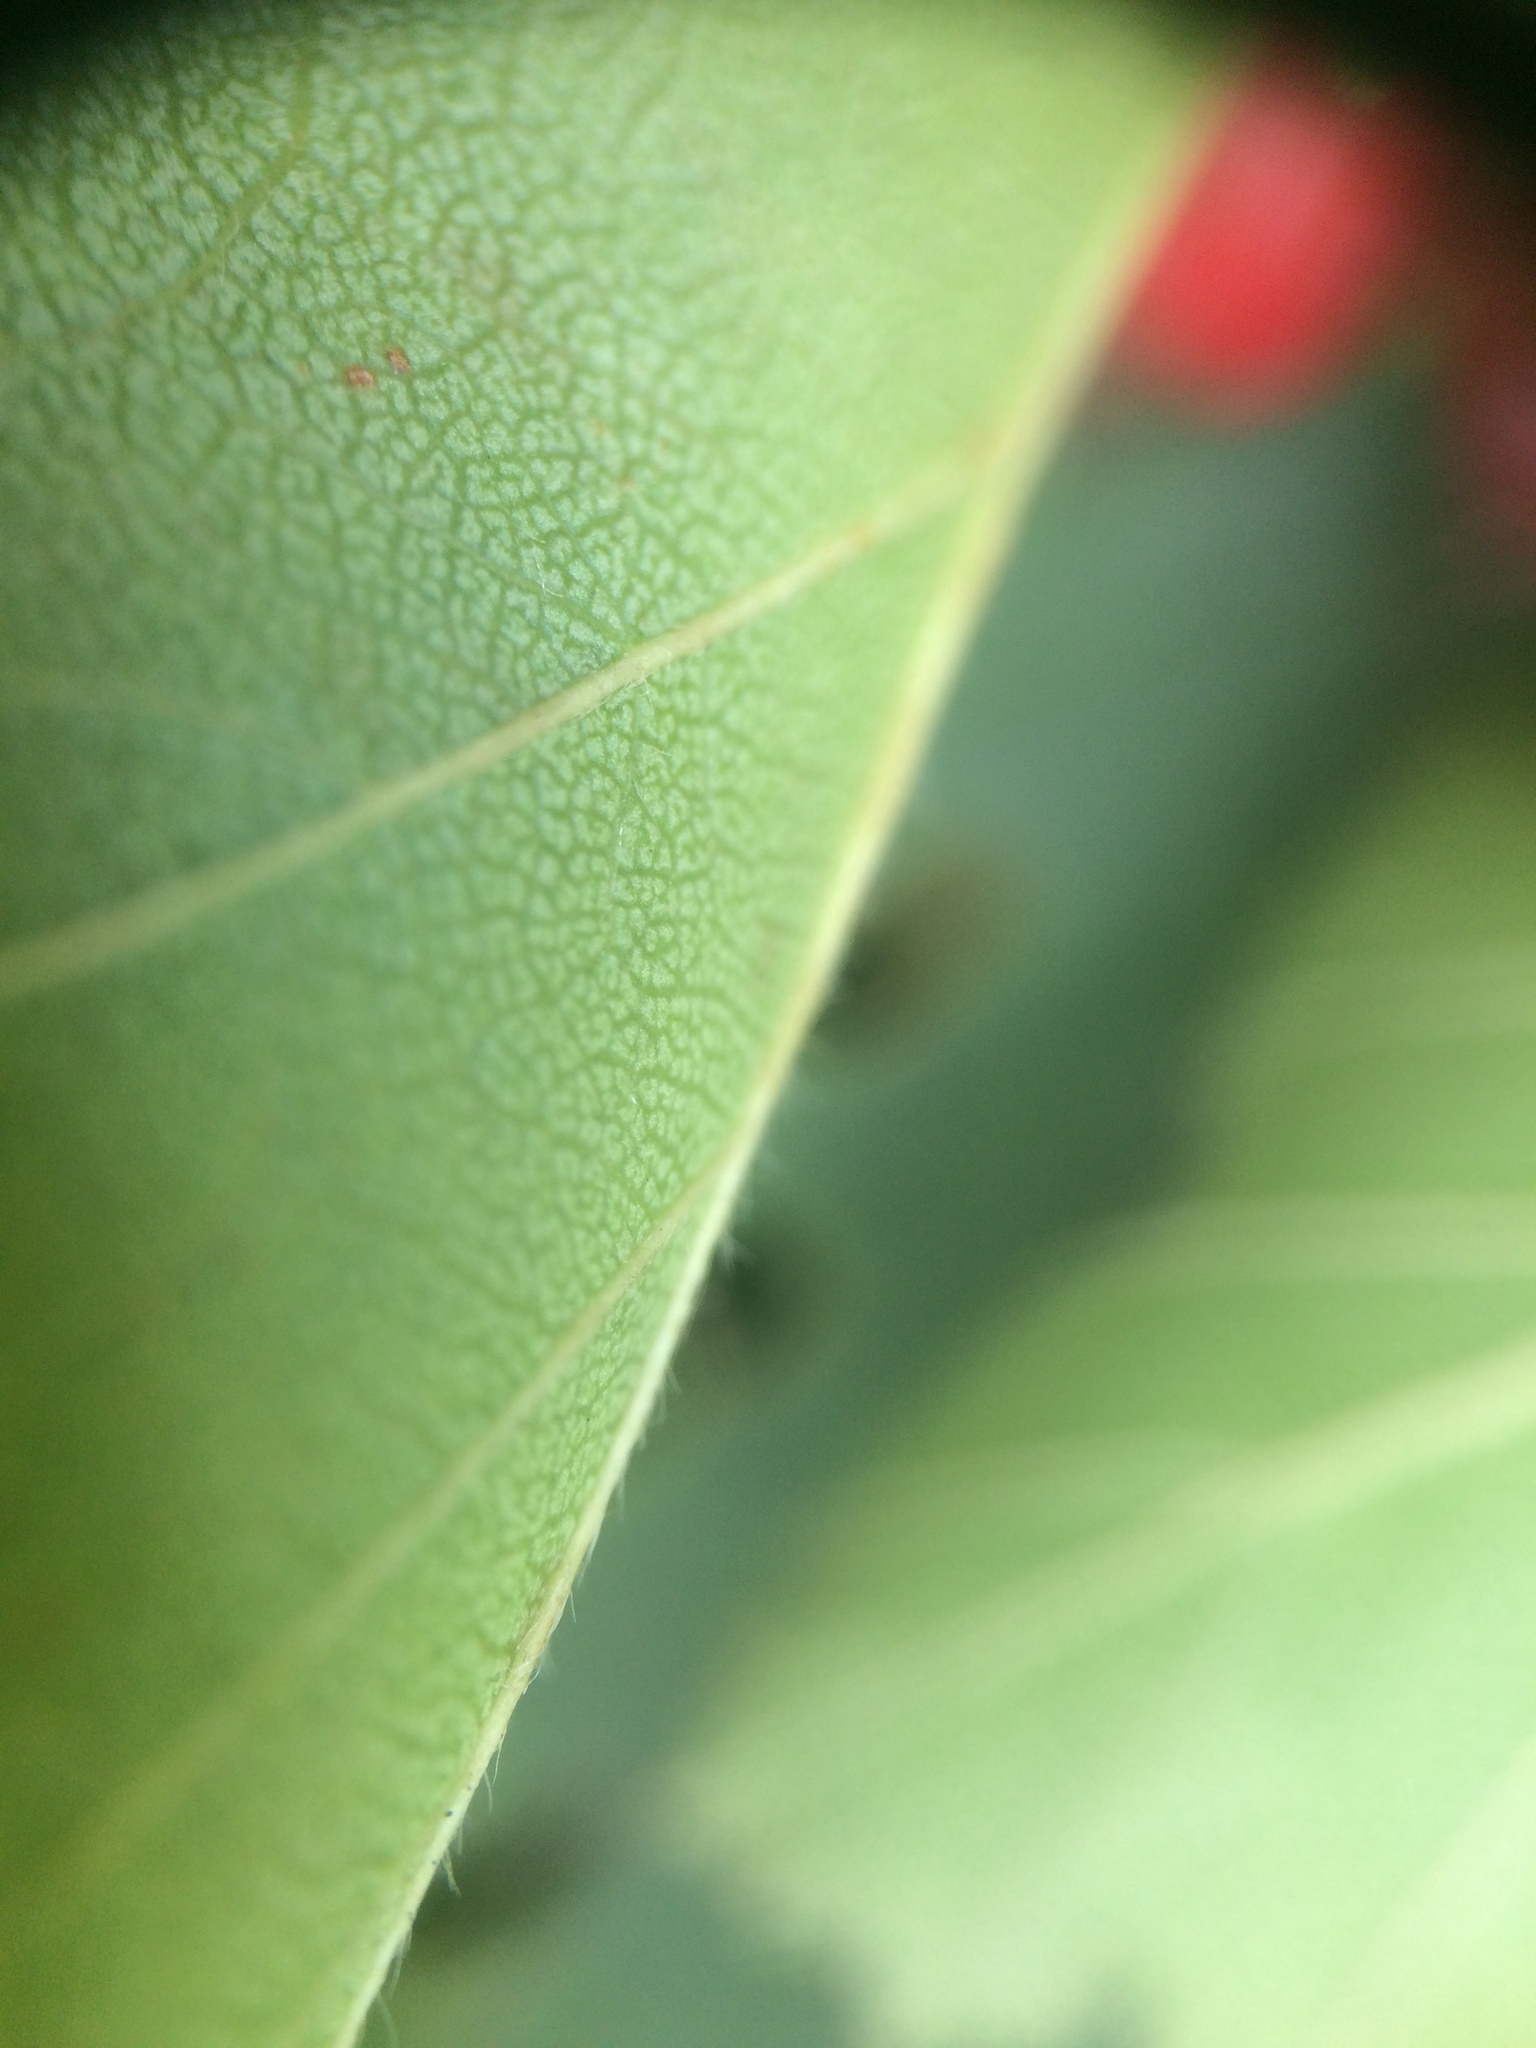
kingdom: Plantae
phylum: Tracheophyta
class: Magnoliopsida
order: Rosales
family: Rosaceae
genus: Crataegus
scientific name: Crataegus irrasa
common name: Unshorn hawthorn
